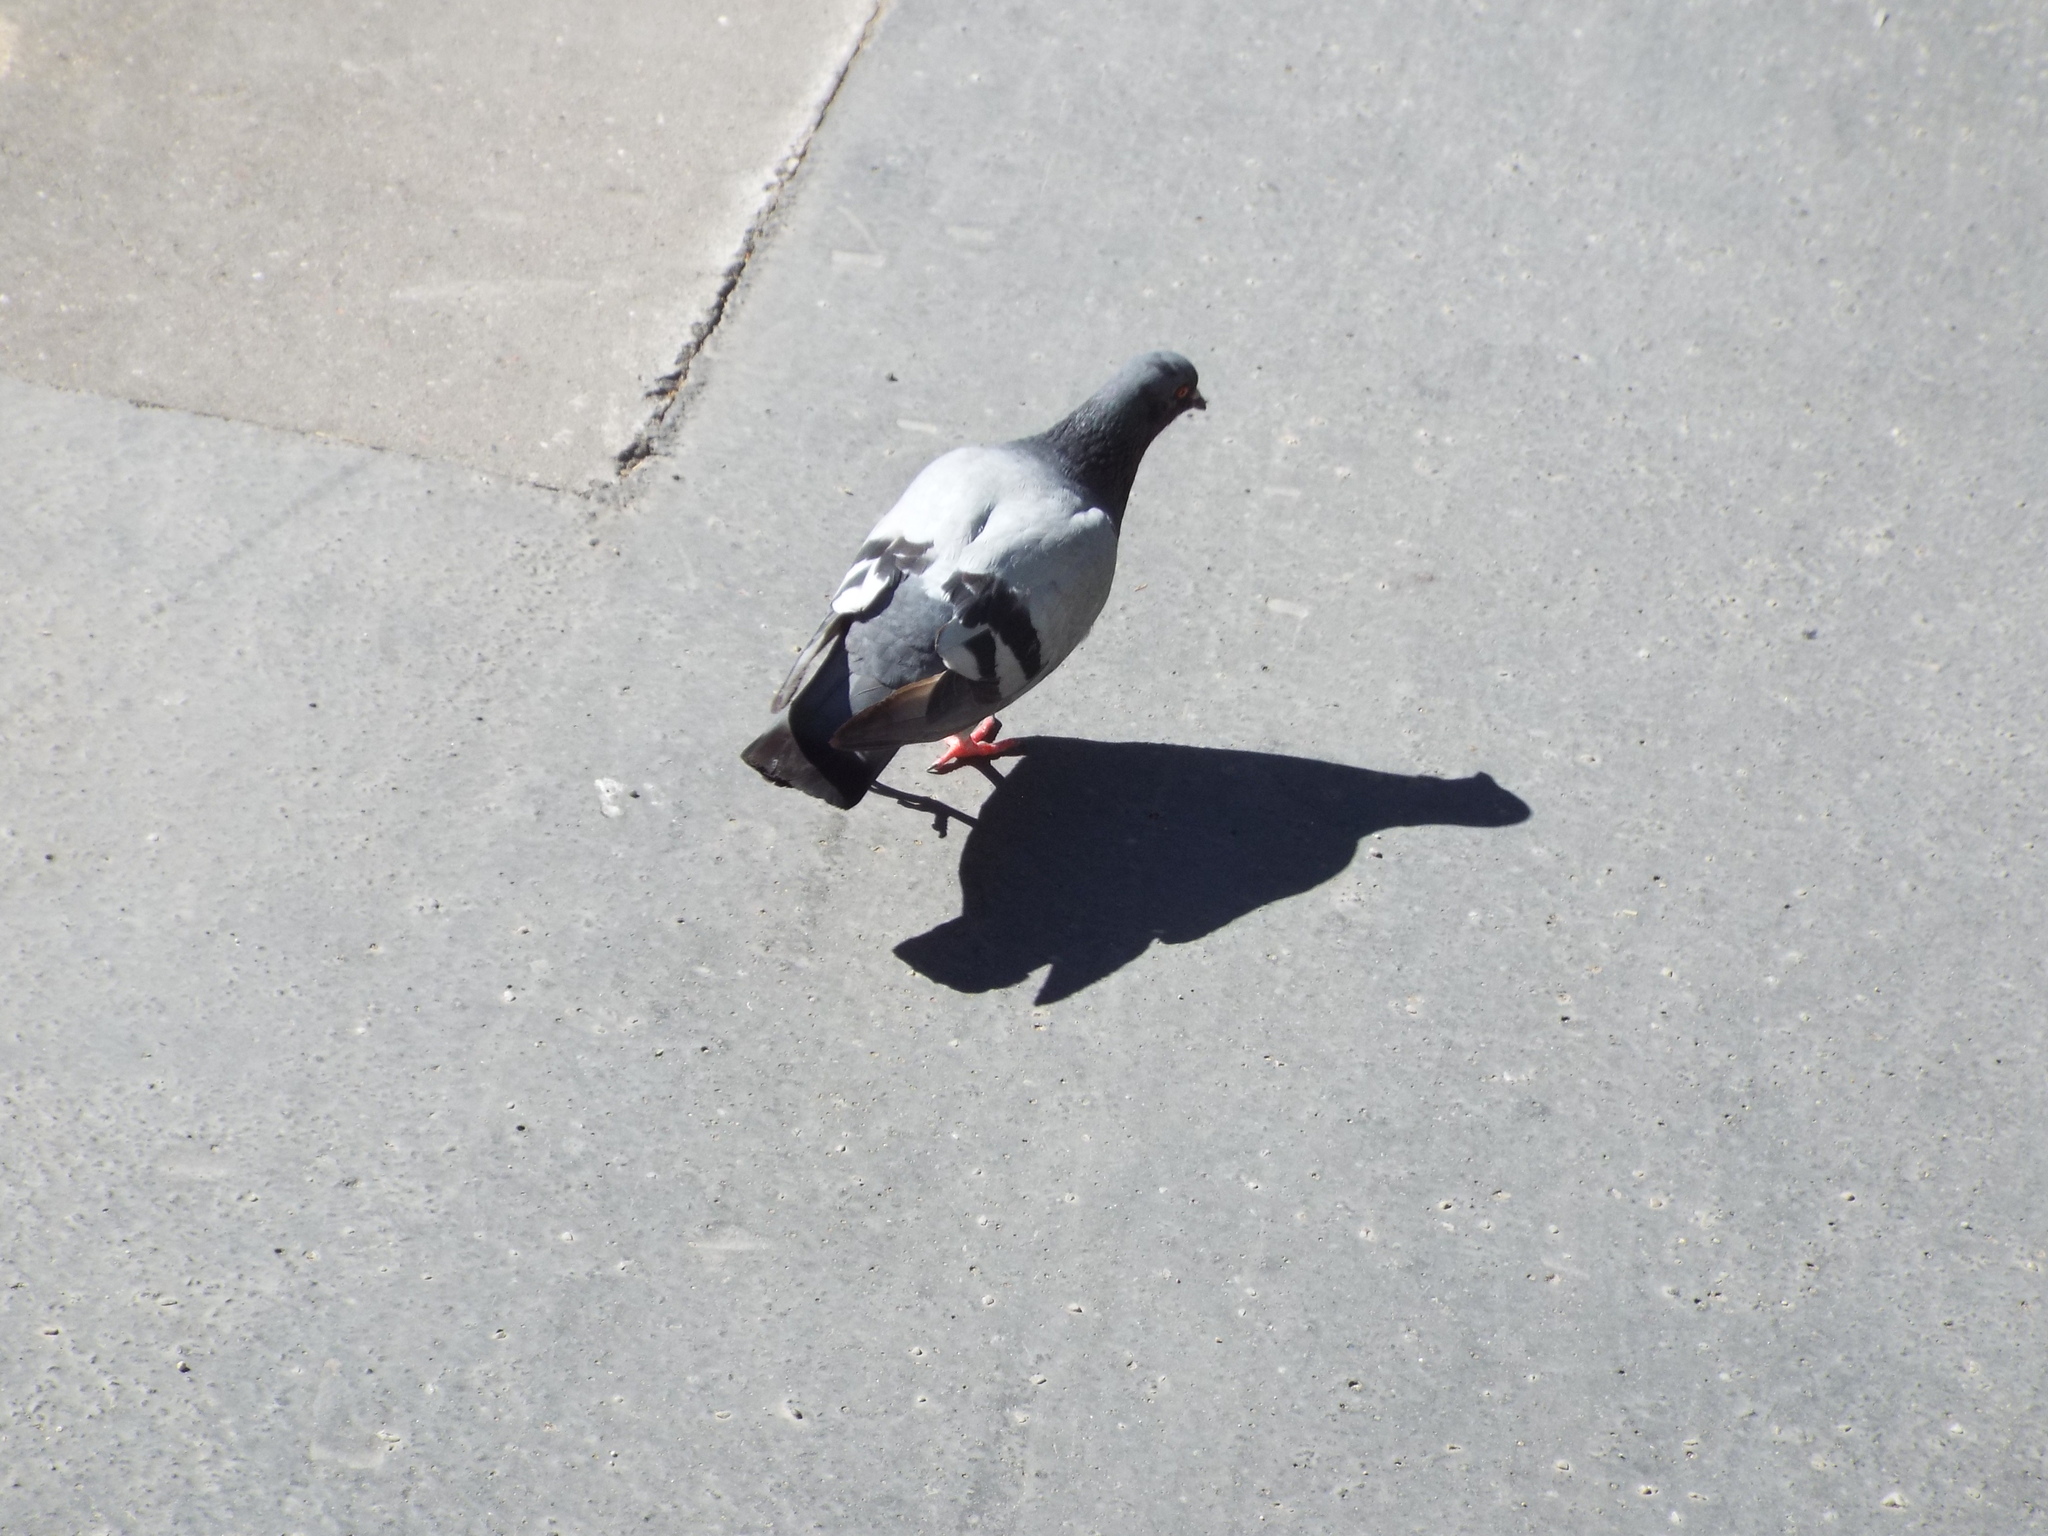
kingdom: Animalia
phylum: Chordata
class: Aves
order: Columbiformes
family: Columbidae
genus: Columba
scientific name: Columba livia
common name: Rock pigeon
